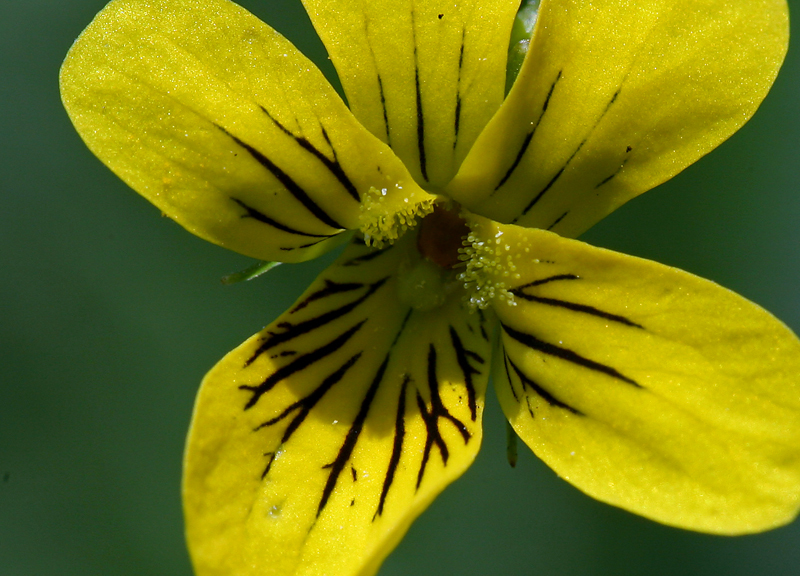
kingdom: Plantae
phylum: Tracheophyta
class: Magnoliopsida
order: Malpighiales
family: Violaceae
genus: Viola
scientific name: Viola glabella
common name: Stream violet
